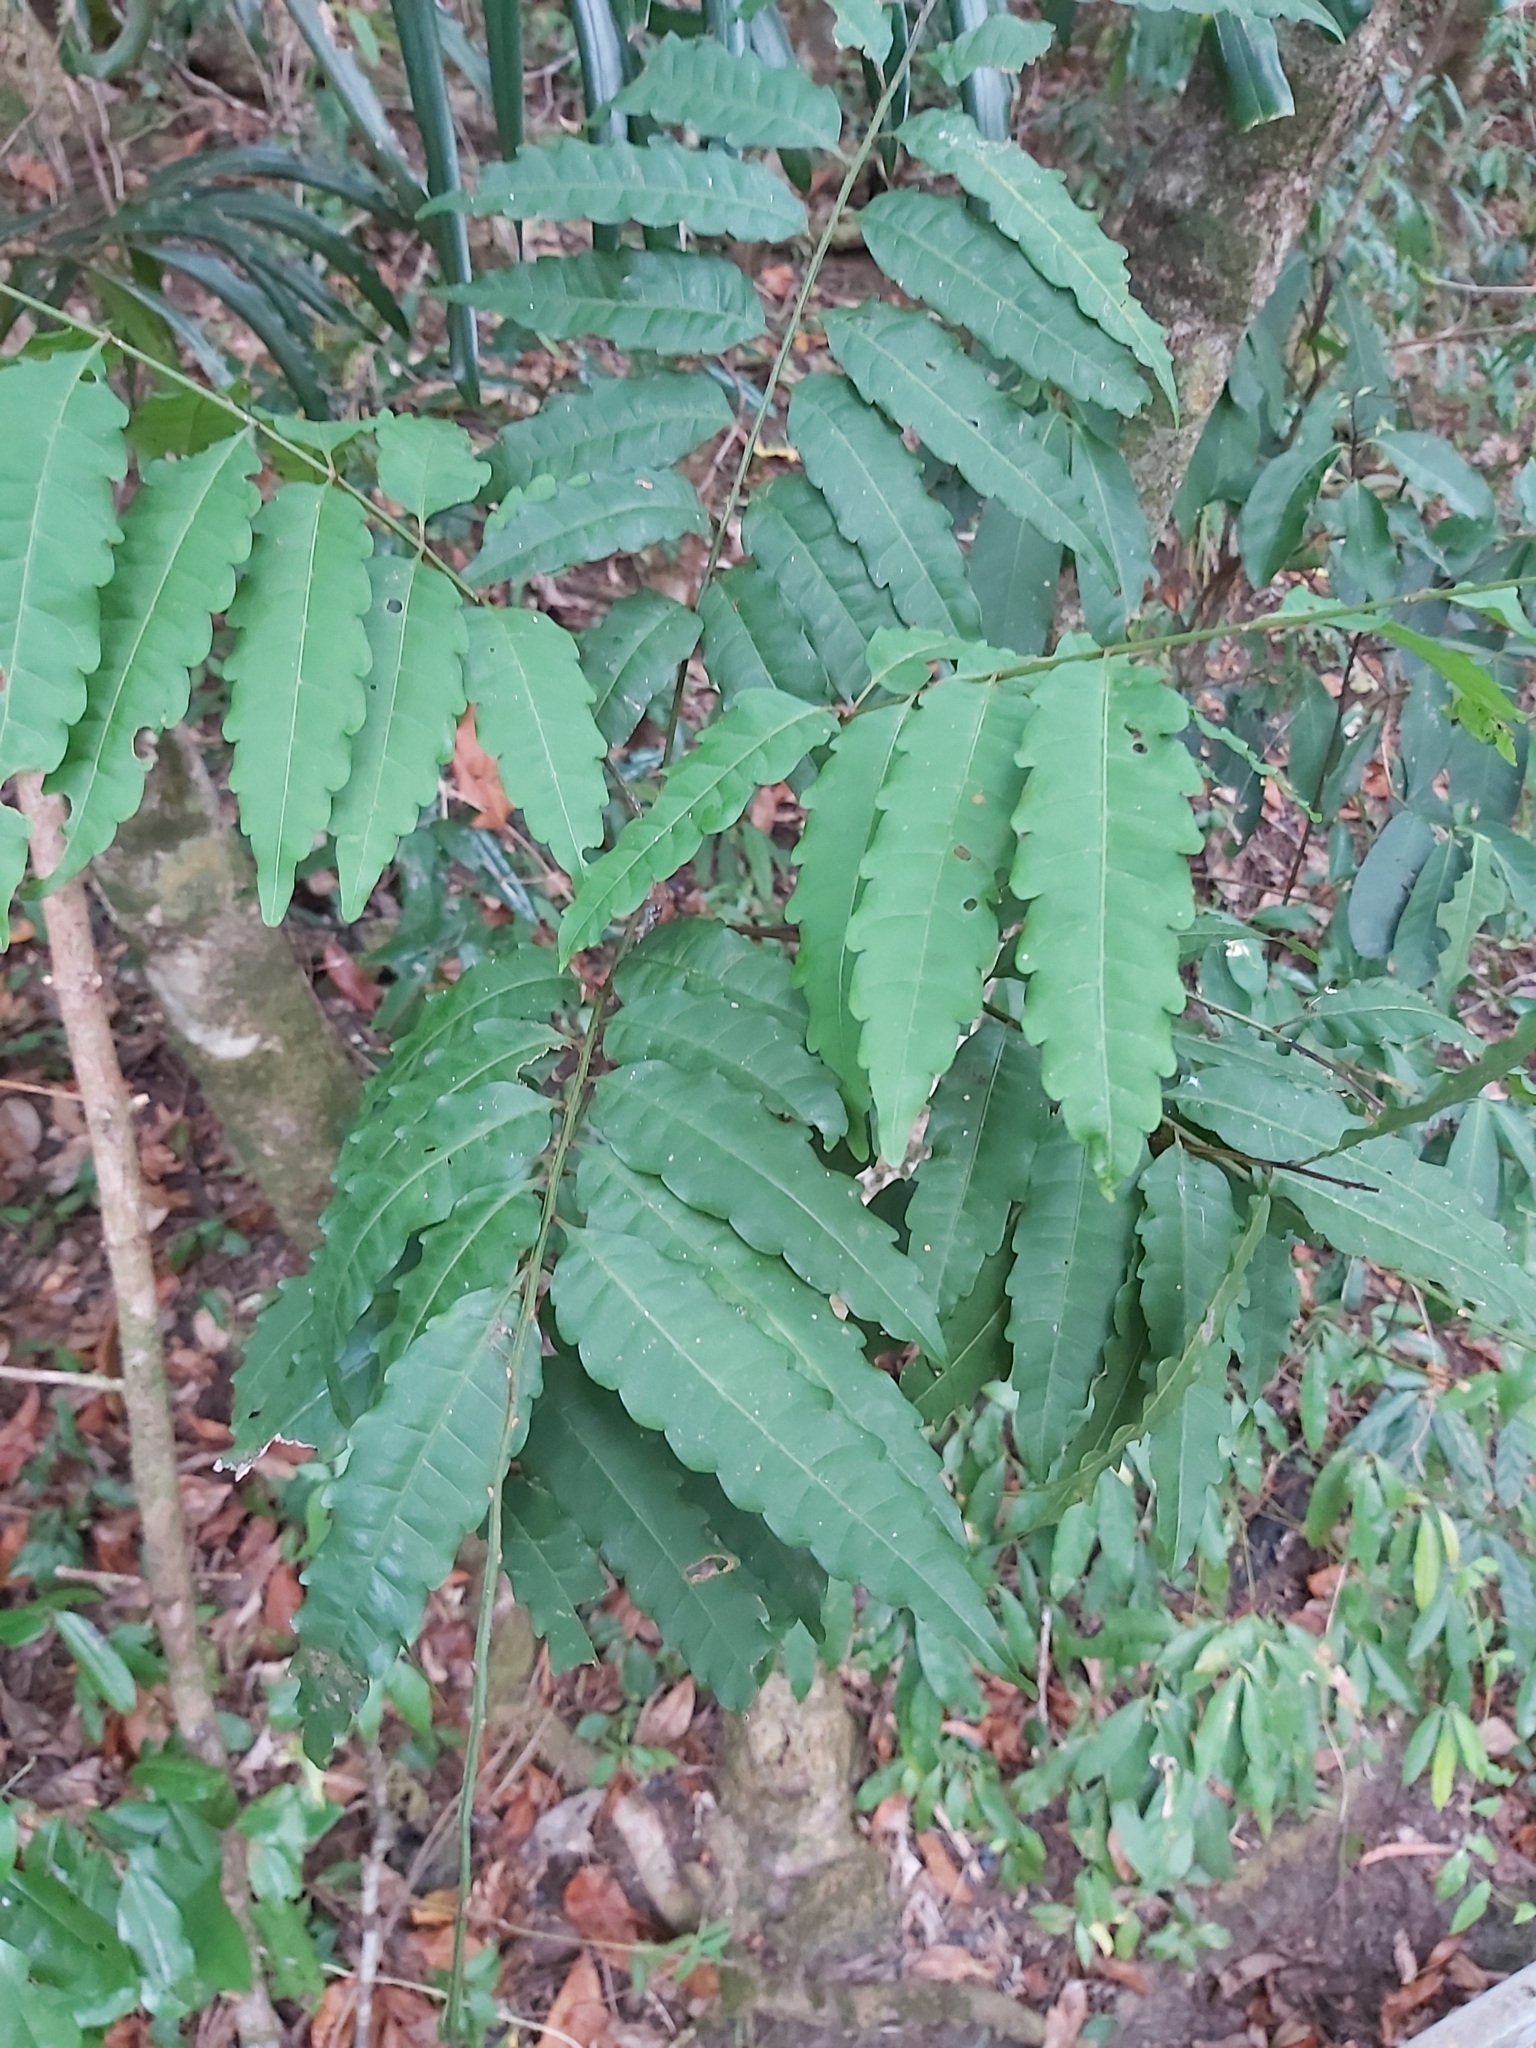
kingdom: Plantae
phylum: Tracheophyta
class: Magnoliopsida
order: Sapindales
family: Sapindaceae
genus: Cupaniopsis
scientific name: Cupaniopsis foveolata
